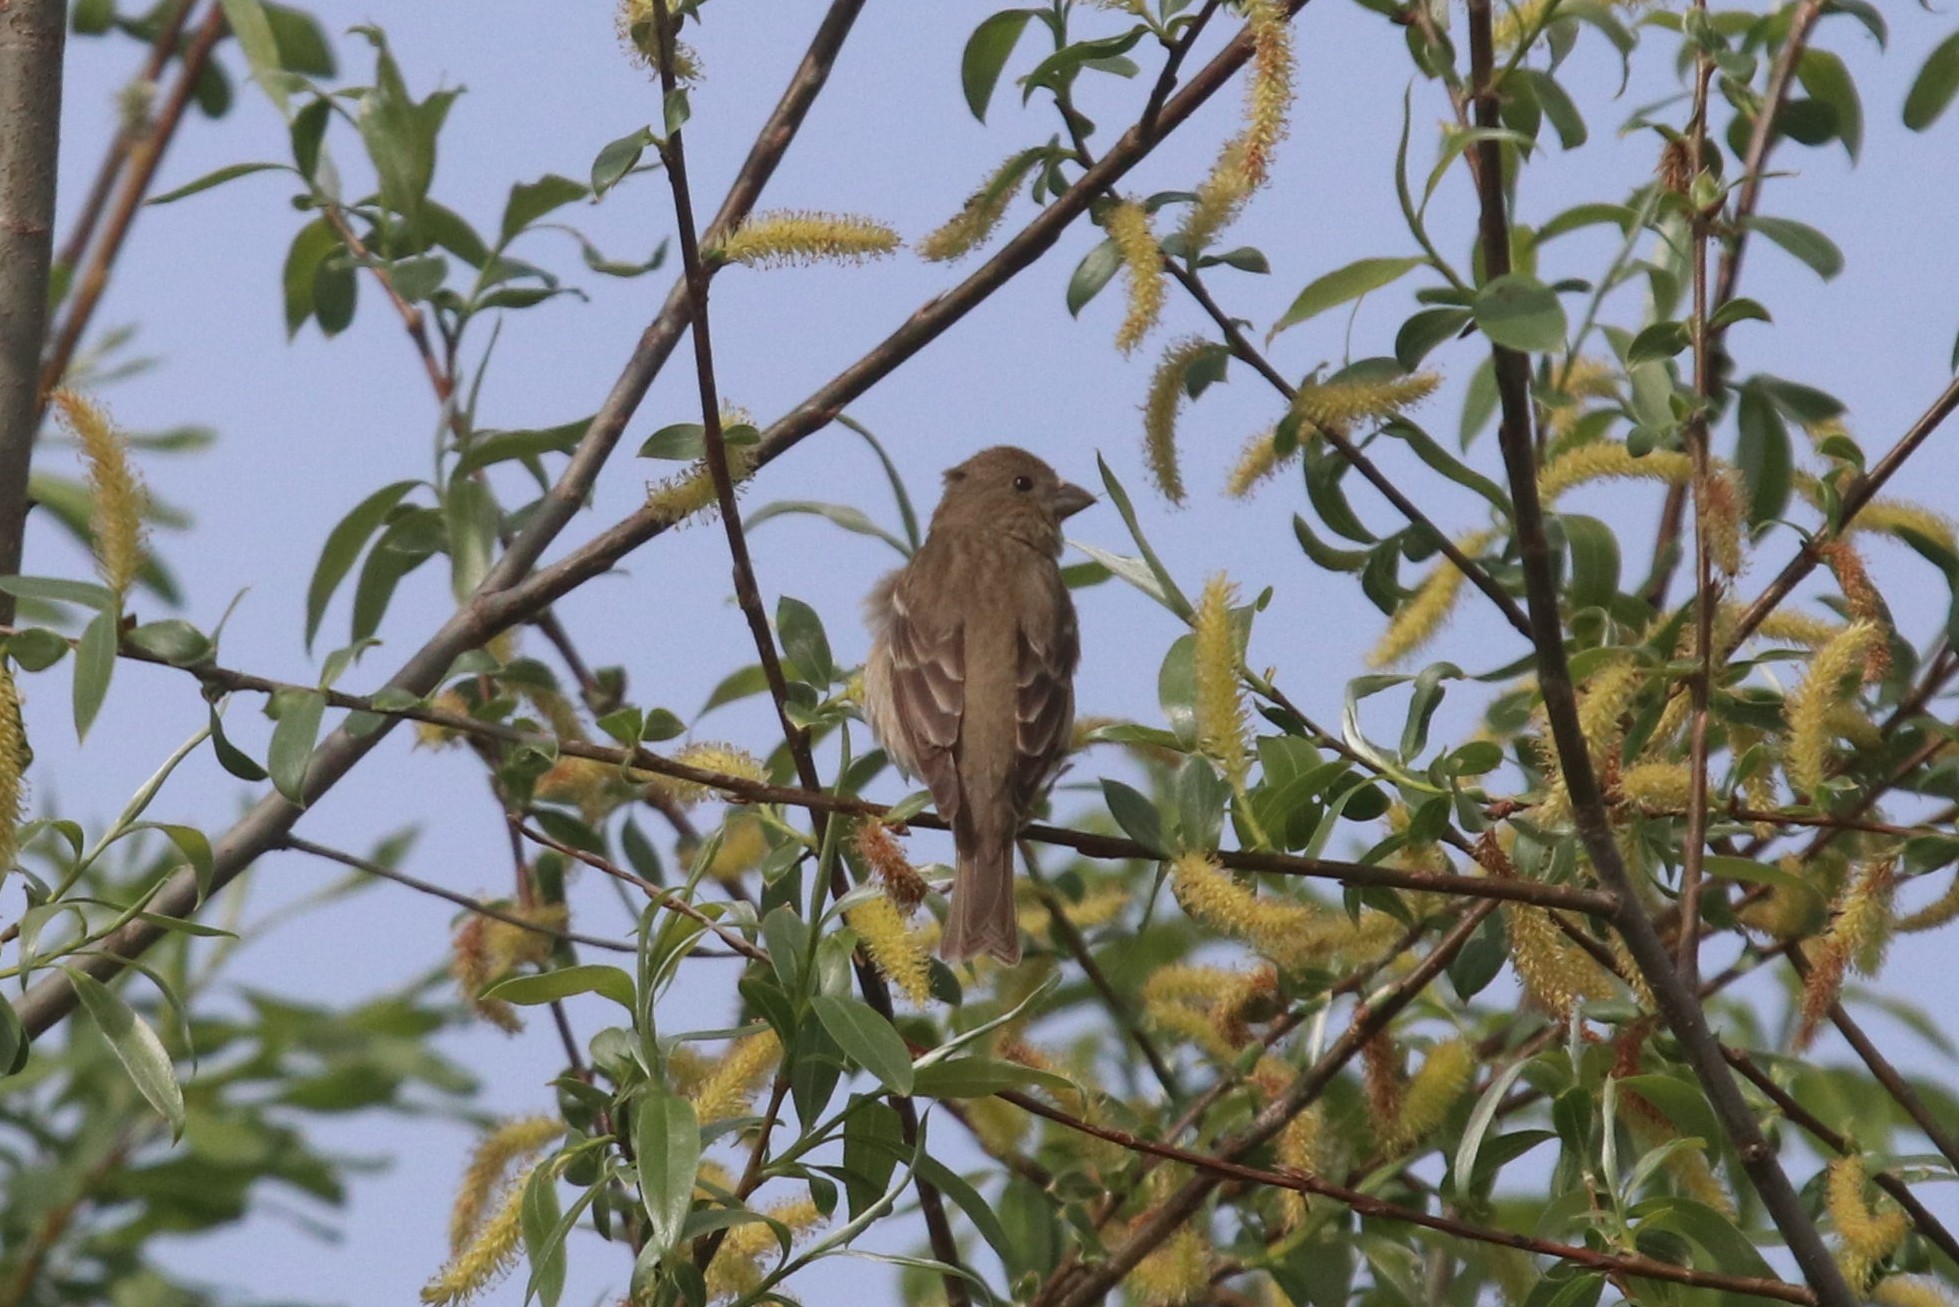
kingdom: Animalia
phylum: Chordata
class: Aves
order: Passeriformes
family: Fringillidae
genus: Carpodacus
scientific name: Carpodacus erythrinus
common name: Common rosefinch
